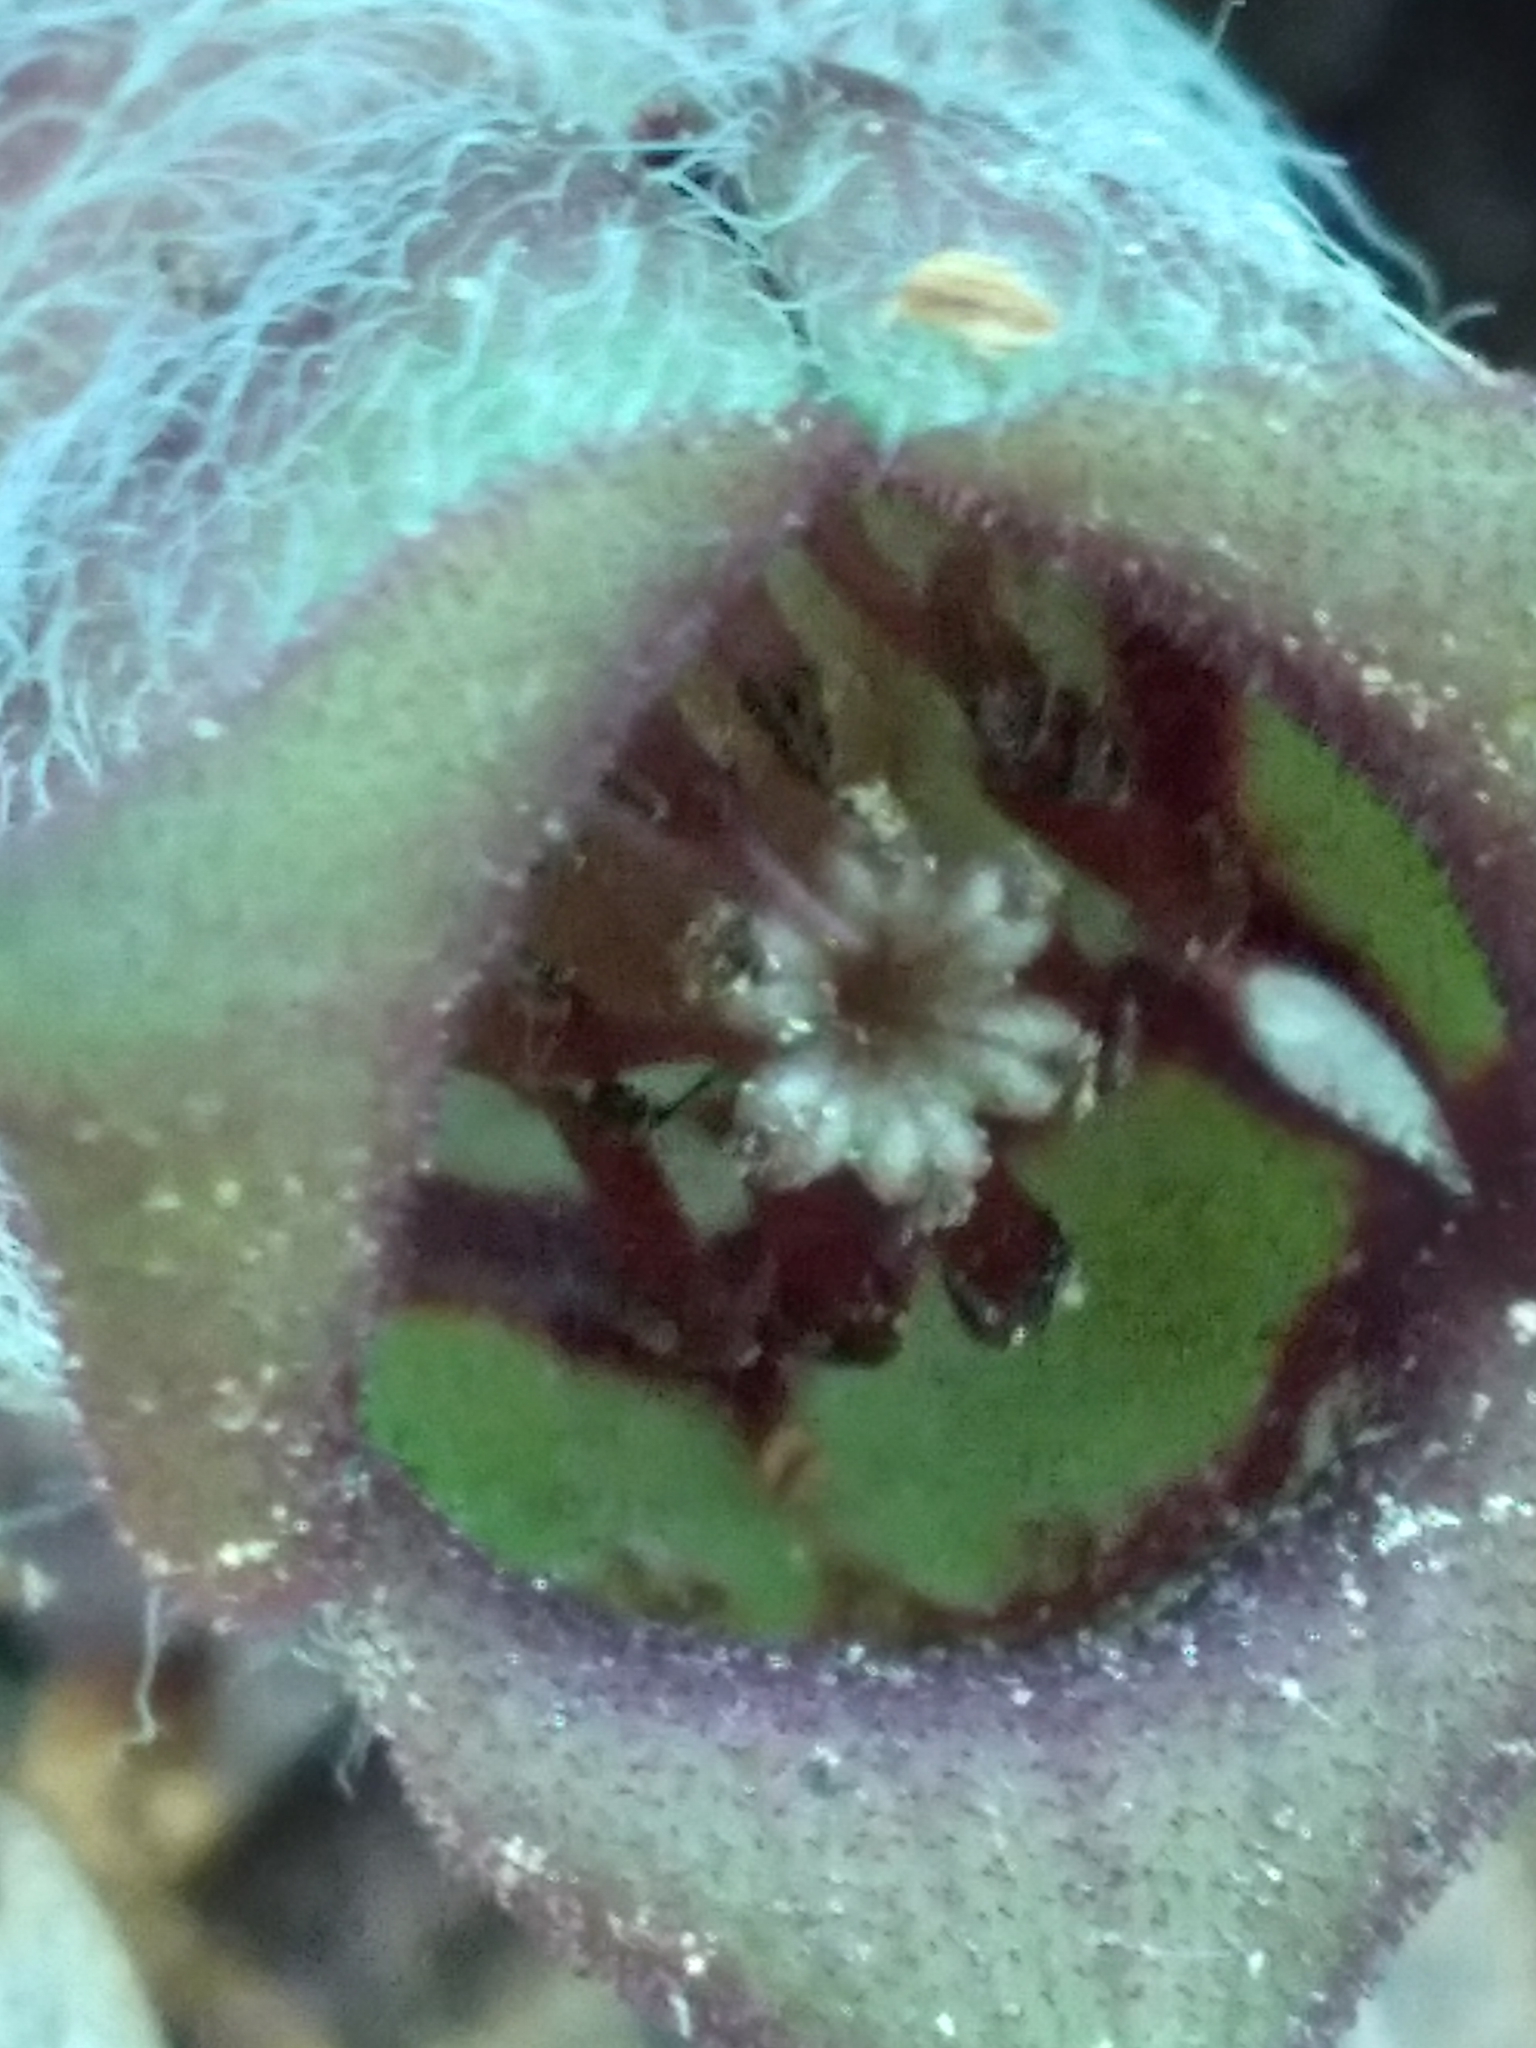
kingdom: Plantae
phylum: Tracheophyta
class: Magnoliopsida
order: Piperales
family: Aristolochiaceae
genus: Asarum
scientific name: Asarum canadense
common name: Wild ginger
